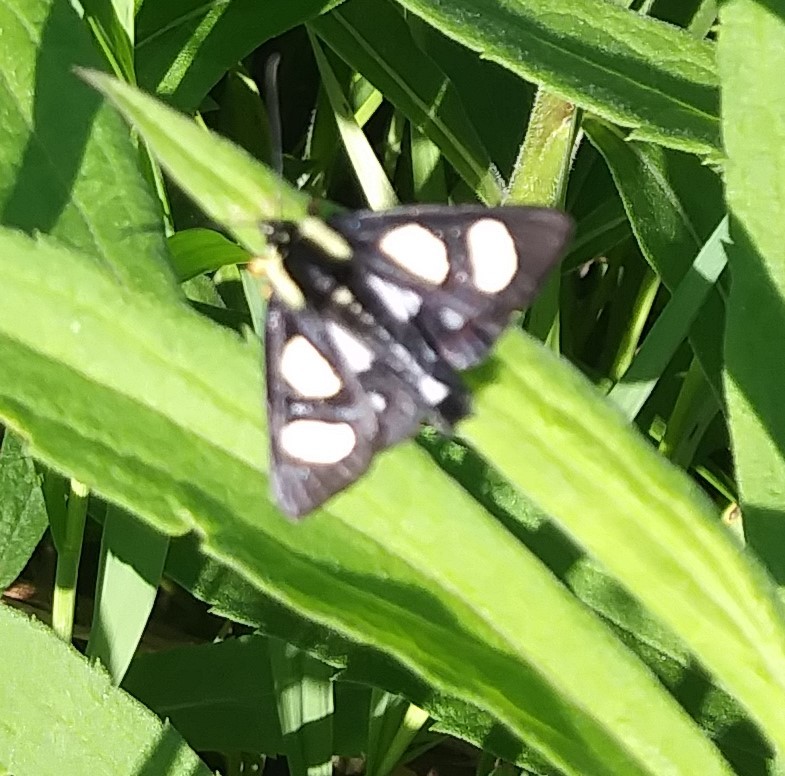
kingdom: Animalia
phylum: Arthropoda
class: Insecta
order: Lepidoptera
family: Noctuidae
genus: Alypia
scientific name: Alypia octomaculata
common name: Eight-spotted forester
